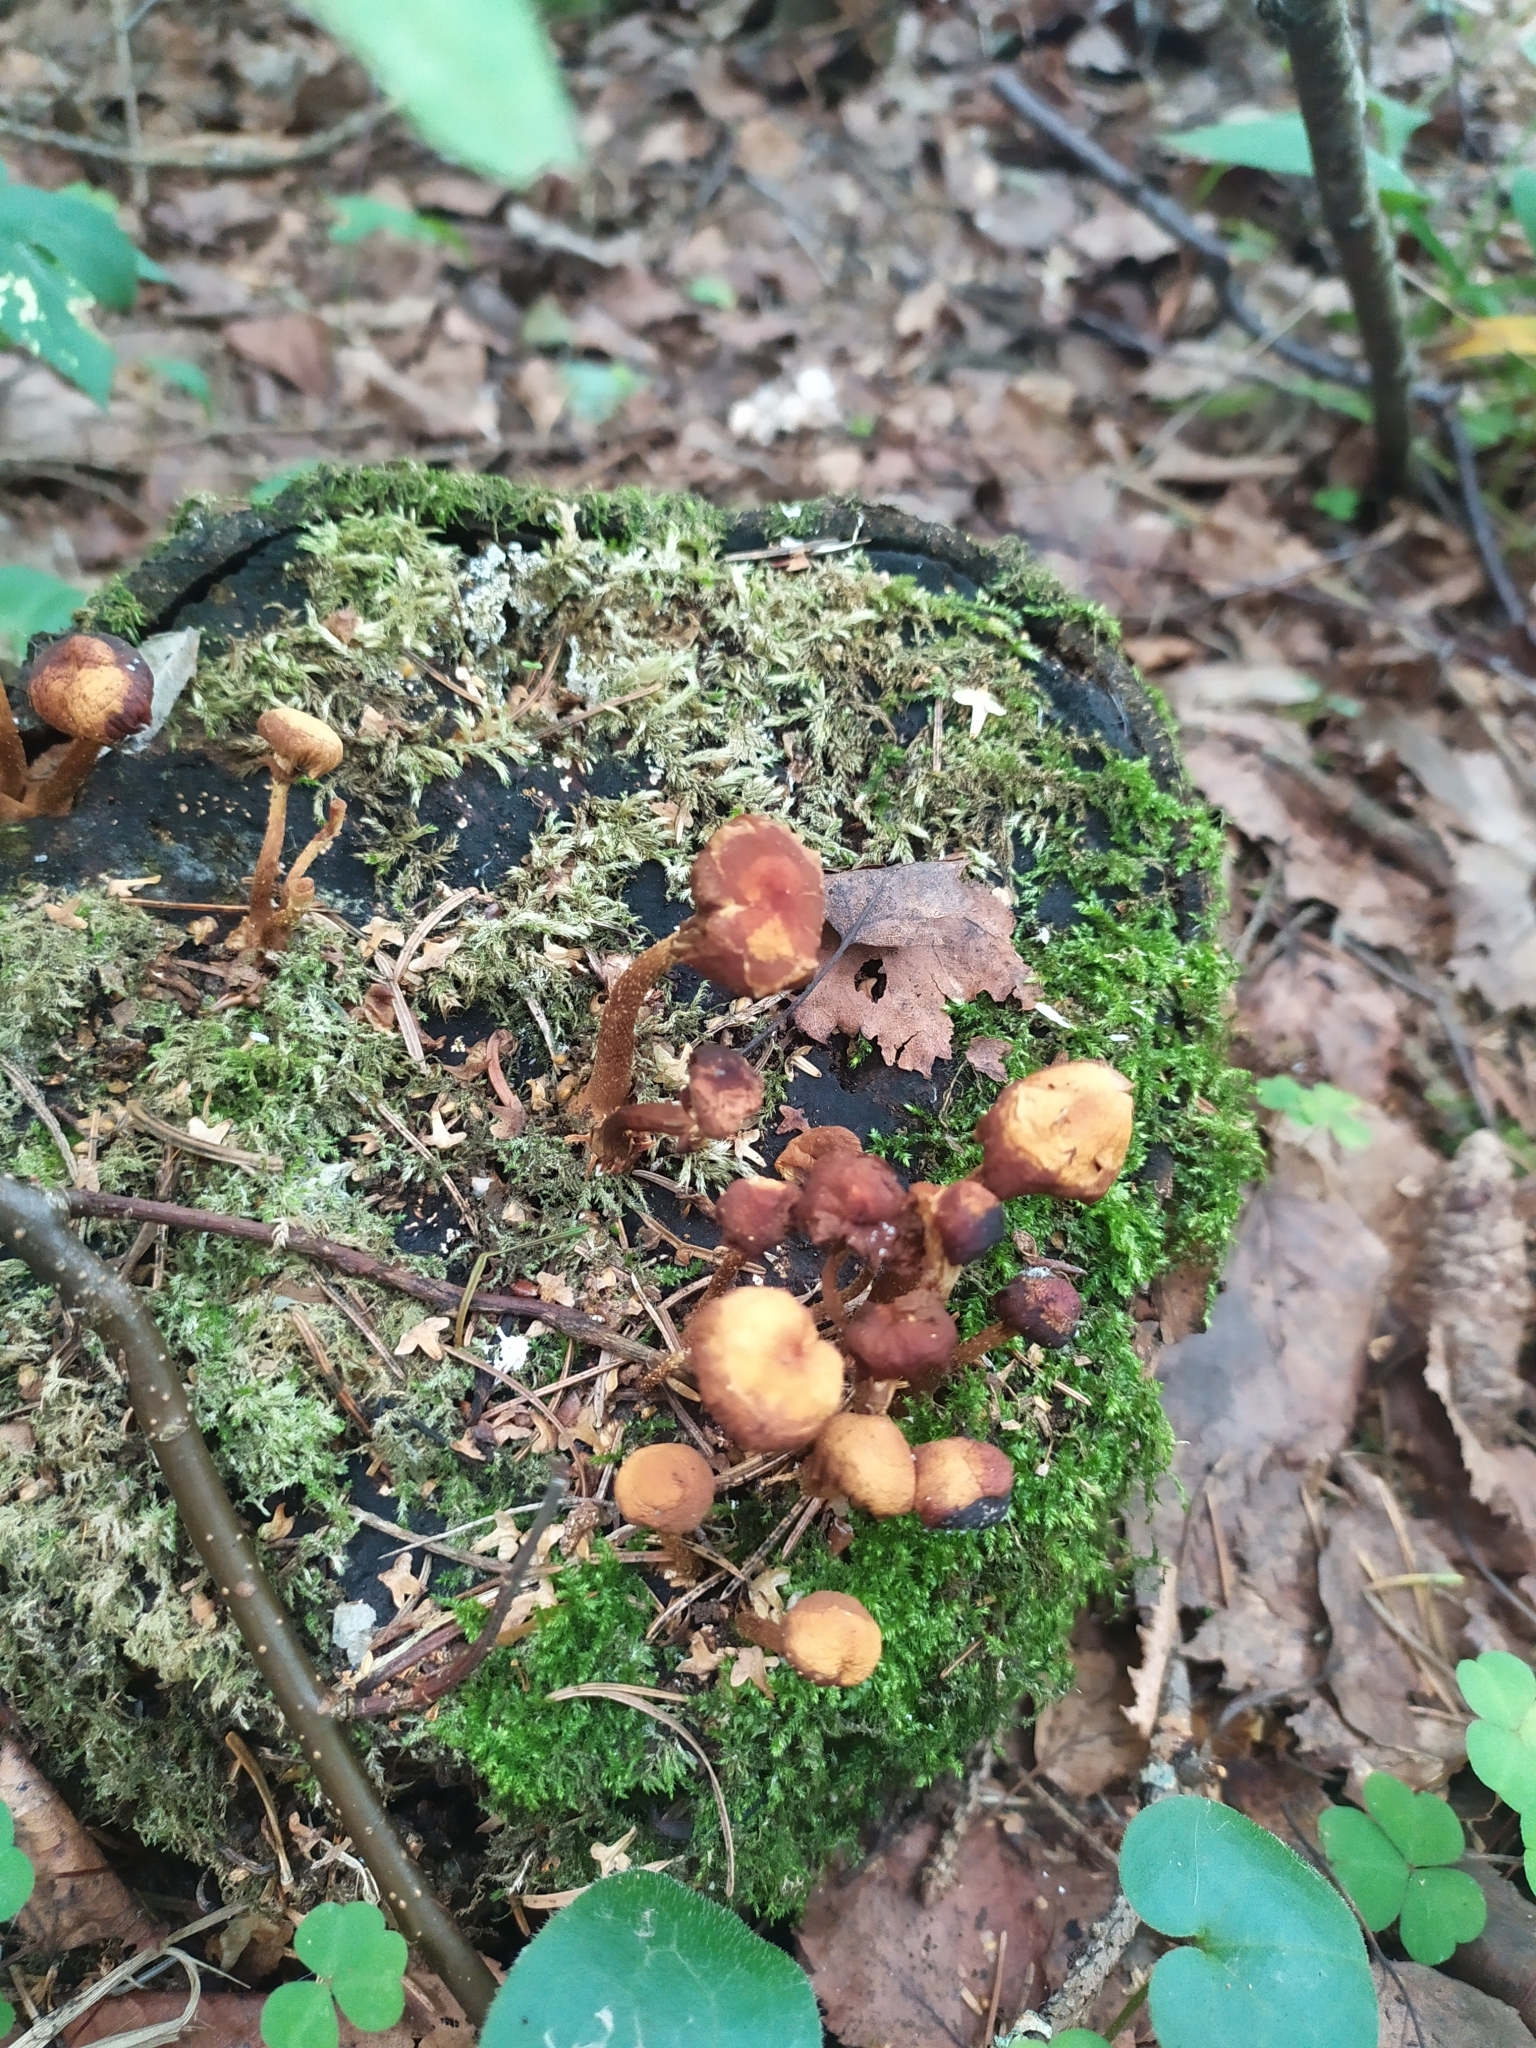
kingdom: Fungi
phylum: Basidiomycota
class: Agaricomycetes
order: Agaricales
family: Strophariaceae
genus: Kuehneromyces
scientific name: Kuehneromyces mutabilis
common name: Sheathed woodtuft
